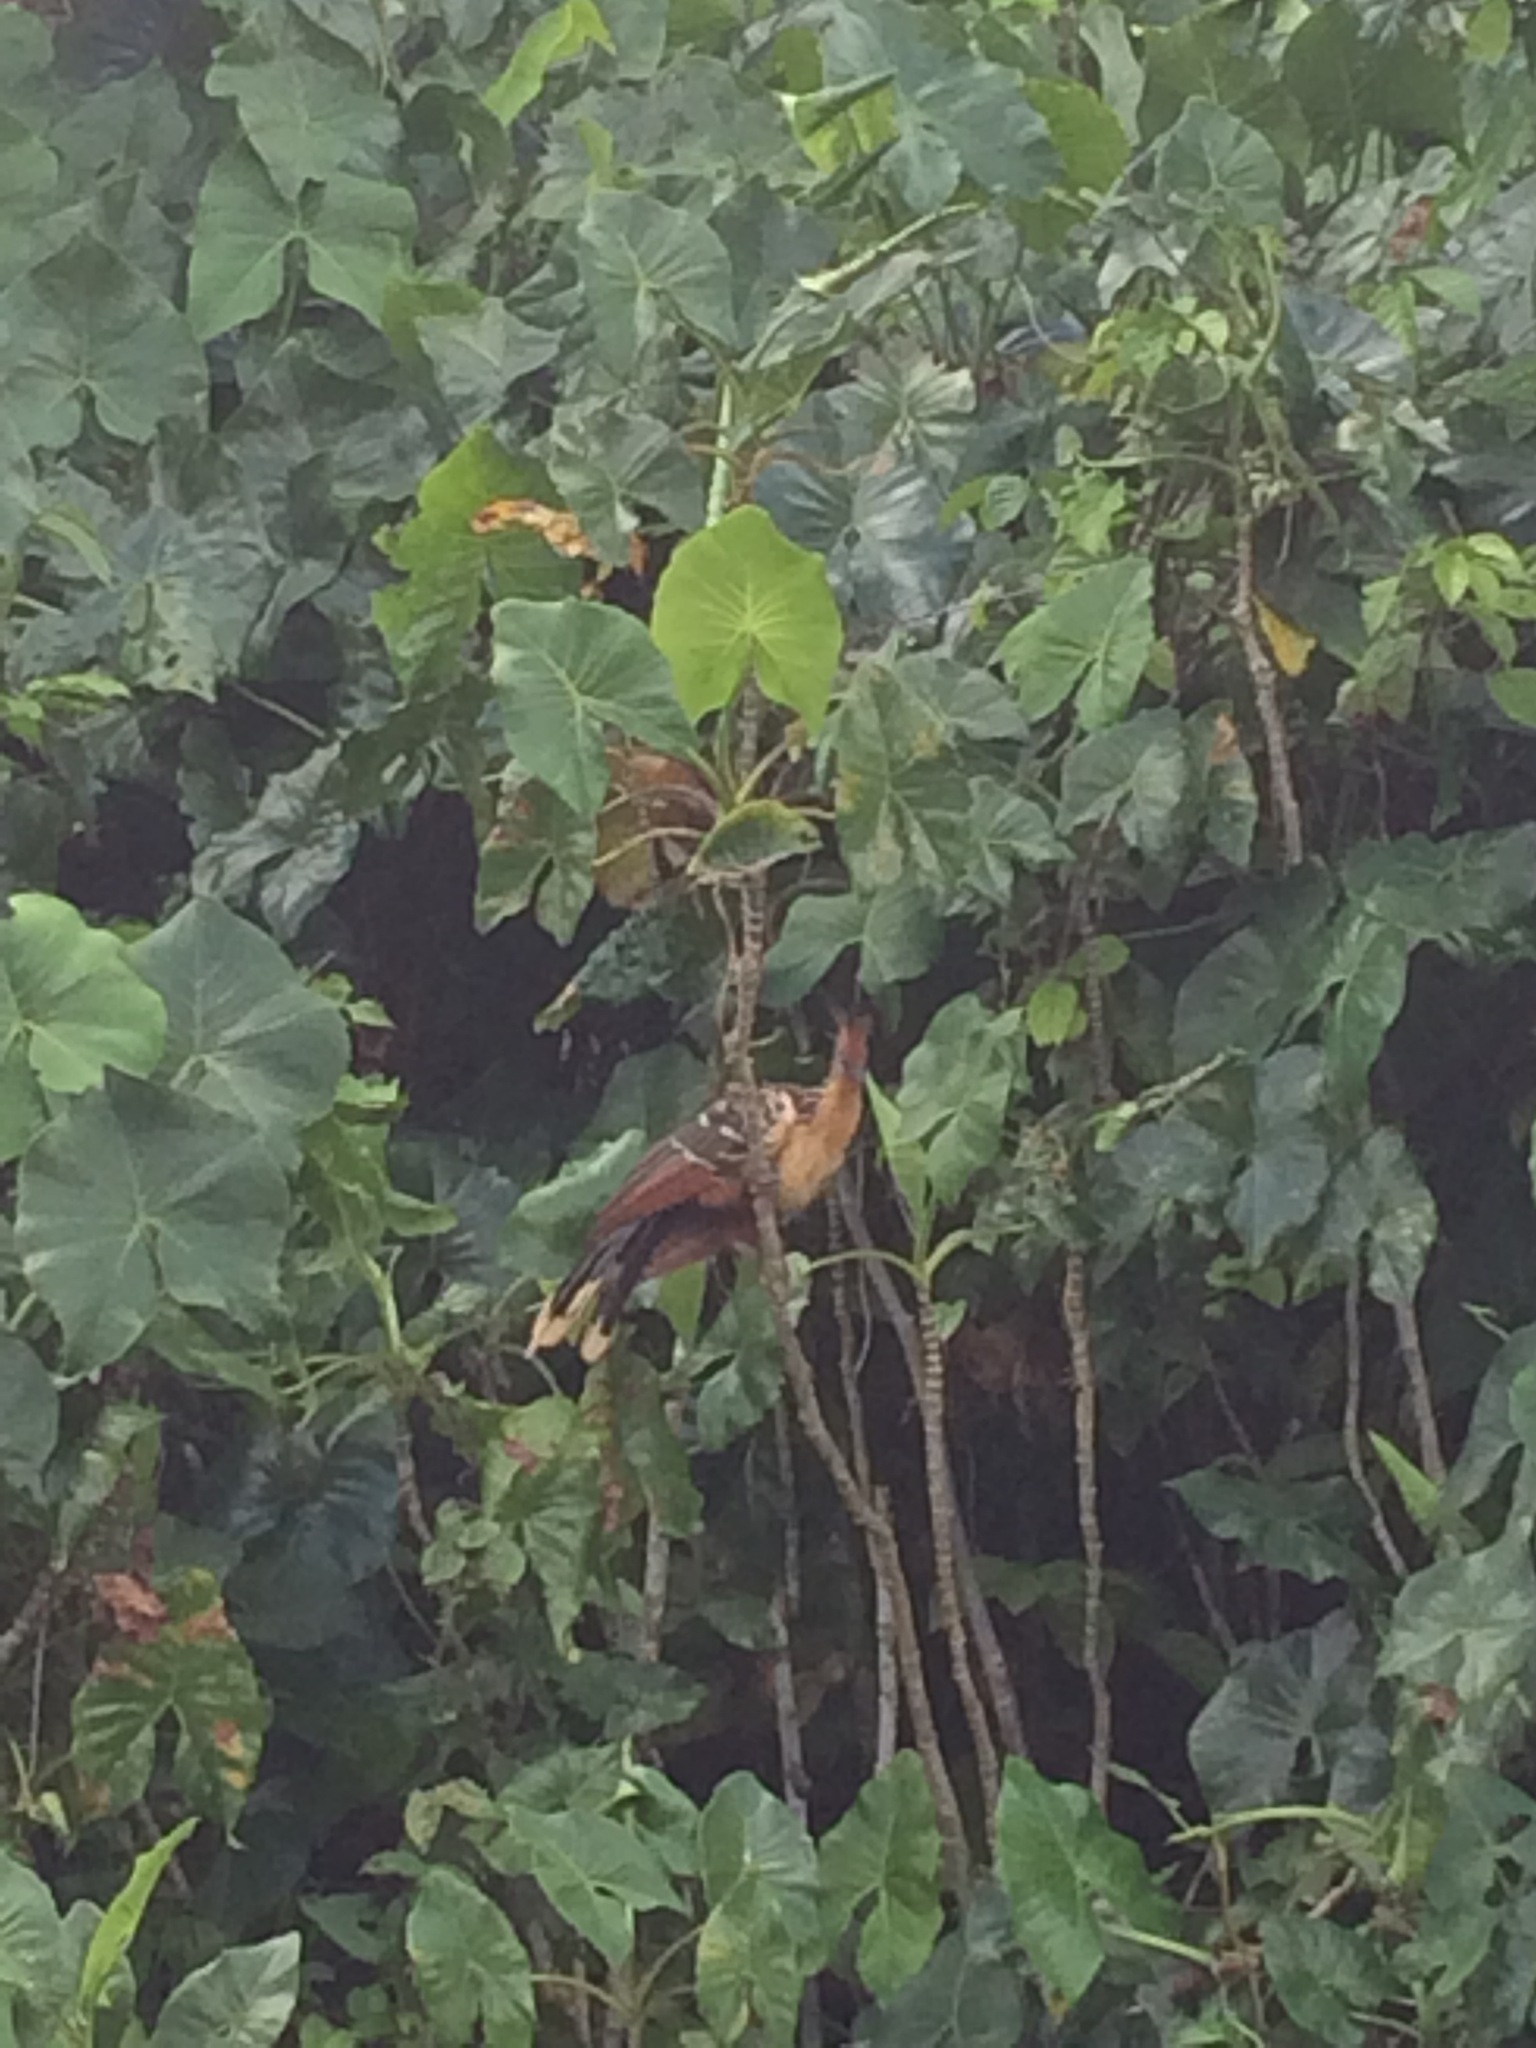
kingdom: Animalia
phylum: Chordata
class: Aves
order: Opisthocomiformes
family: Opisthocomidae
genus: Opisthocomus
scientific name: Opisthocomus hoazin
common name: Hoatzin
